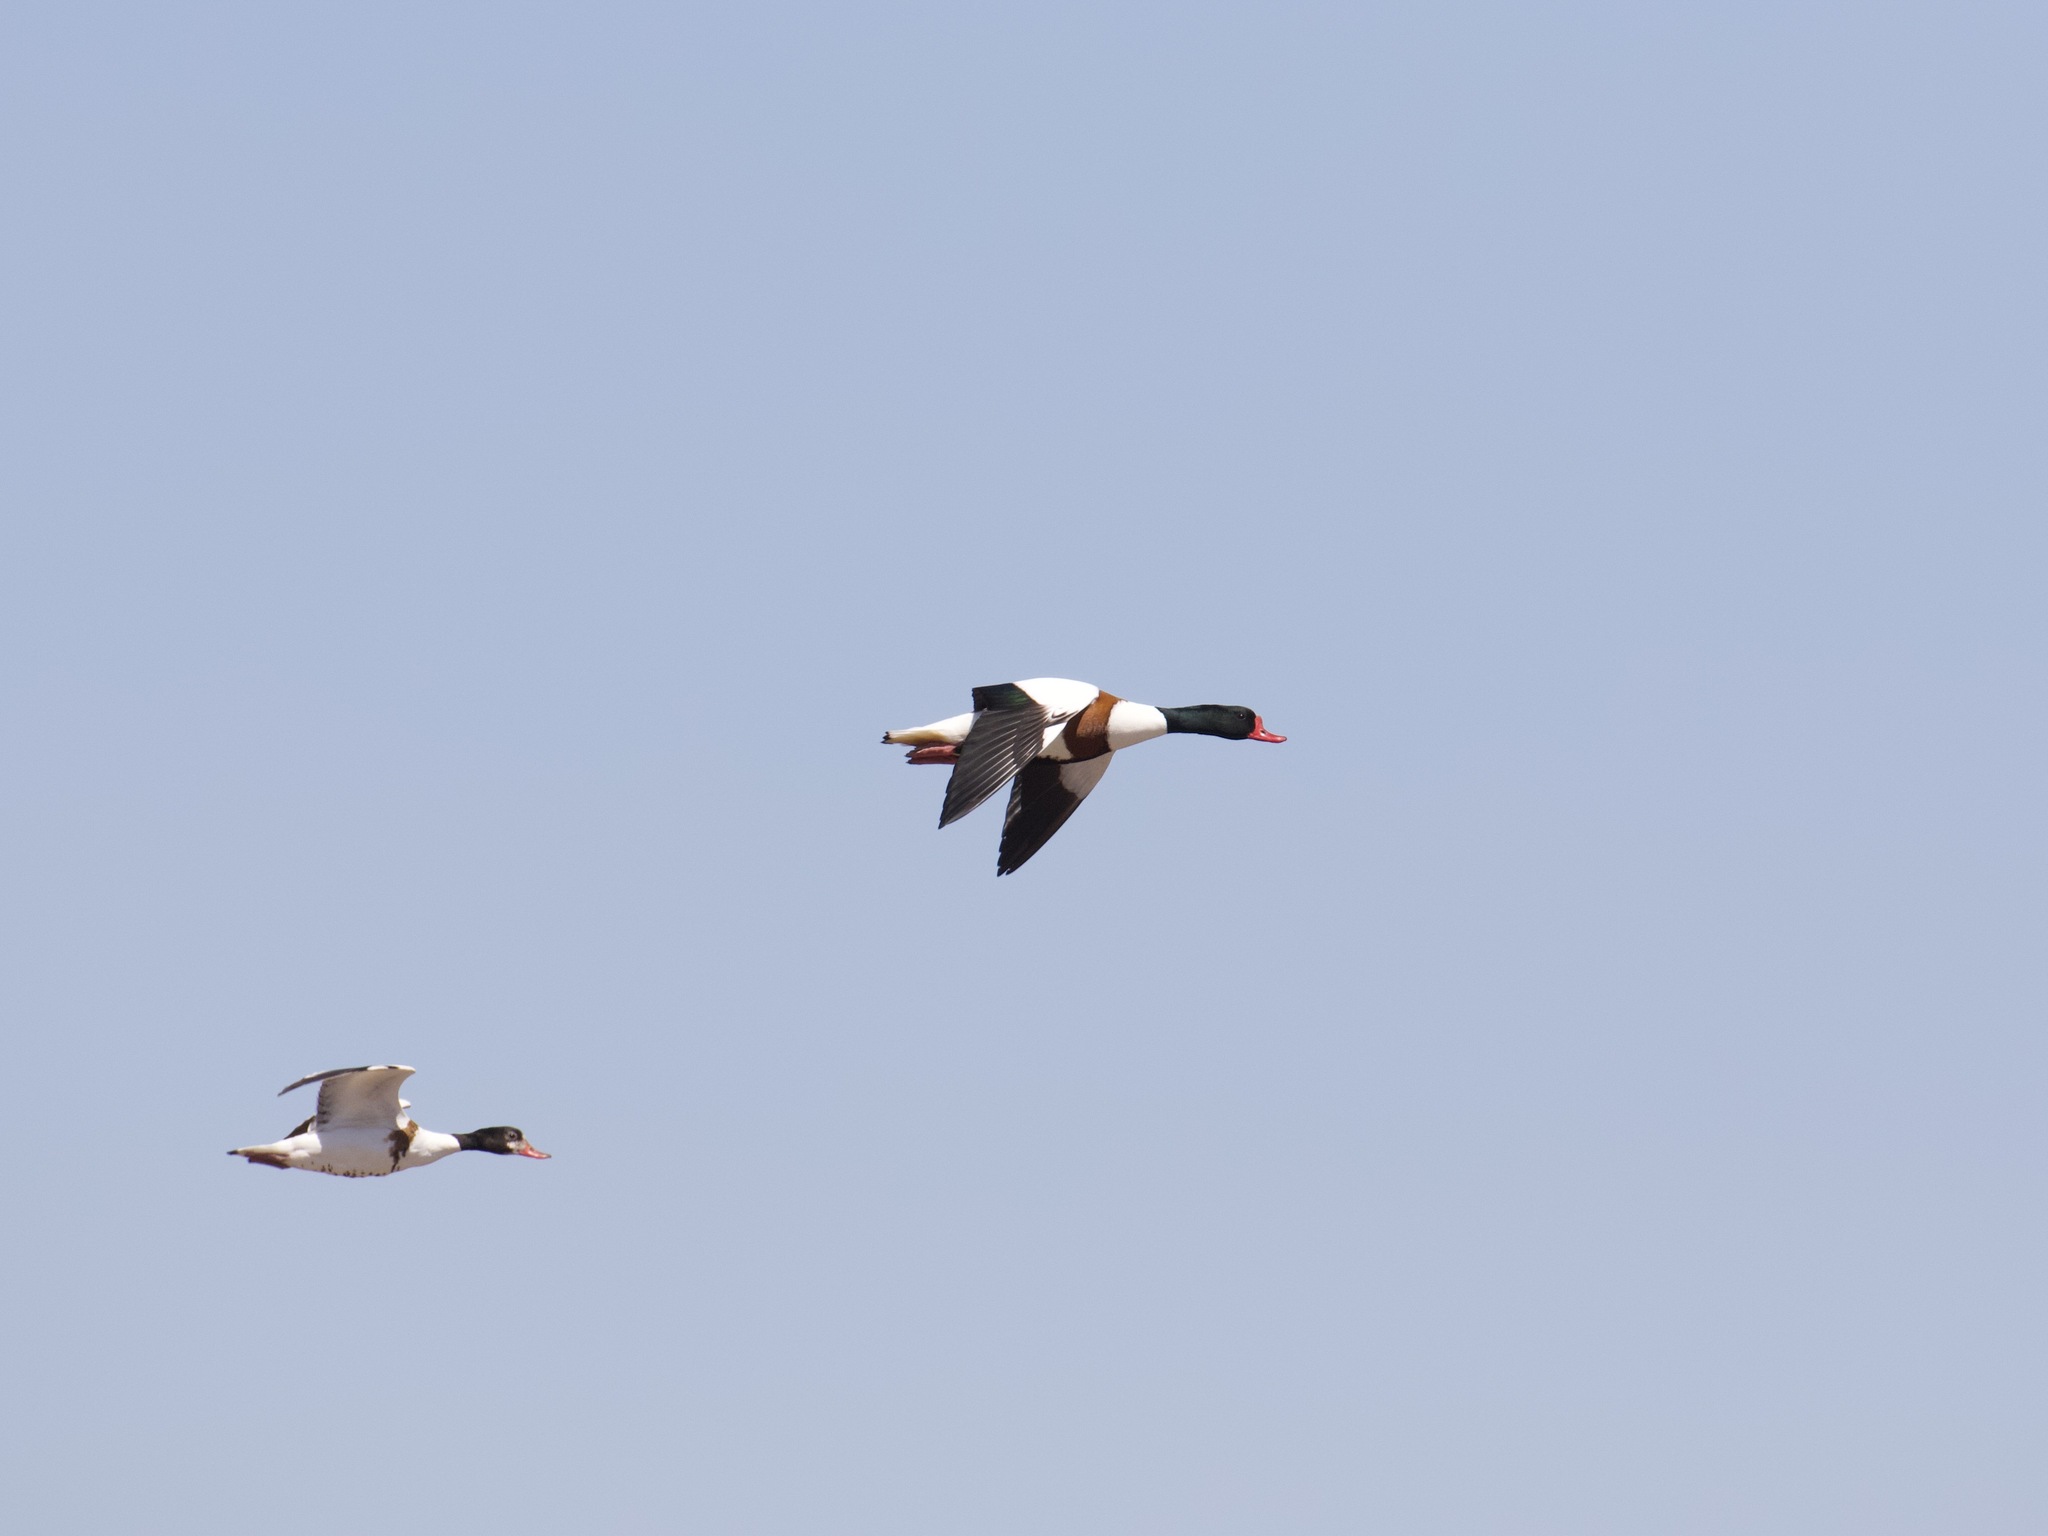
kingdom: Animalia
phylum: Chordata
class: Aves
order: Anseriformes
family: Anatidae
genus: Tadorna
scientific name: Tadorna tadorna
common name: Common shelduck
